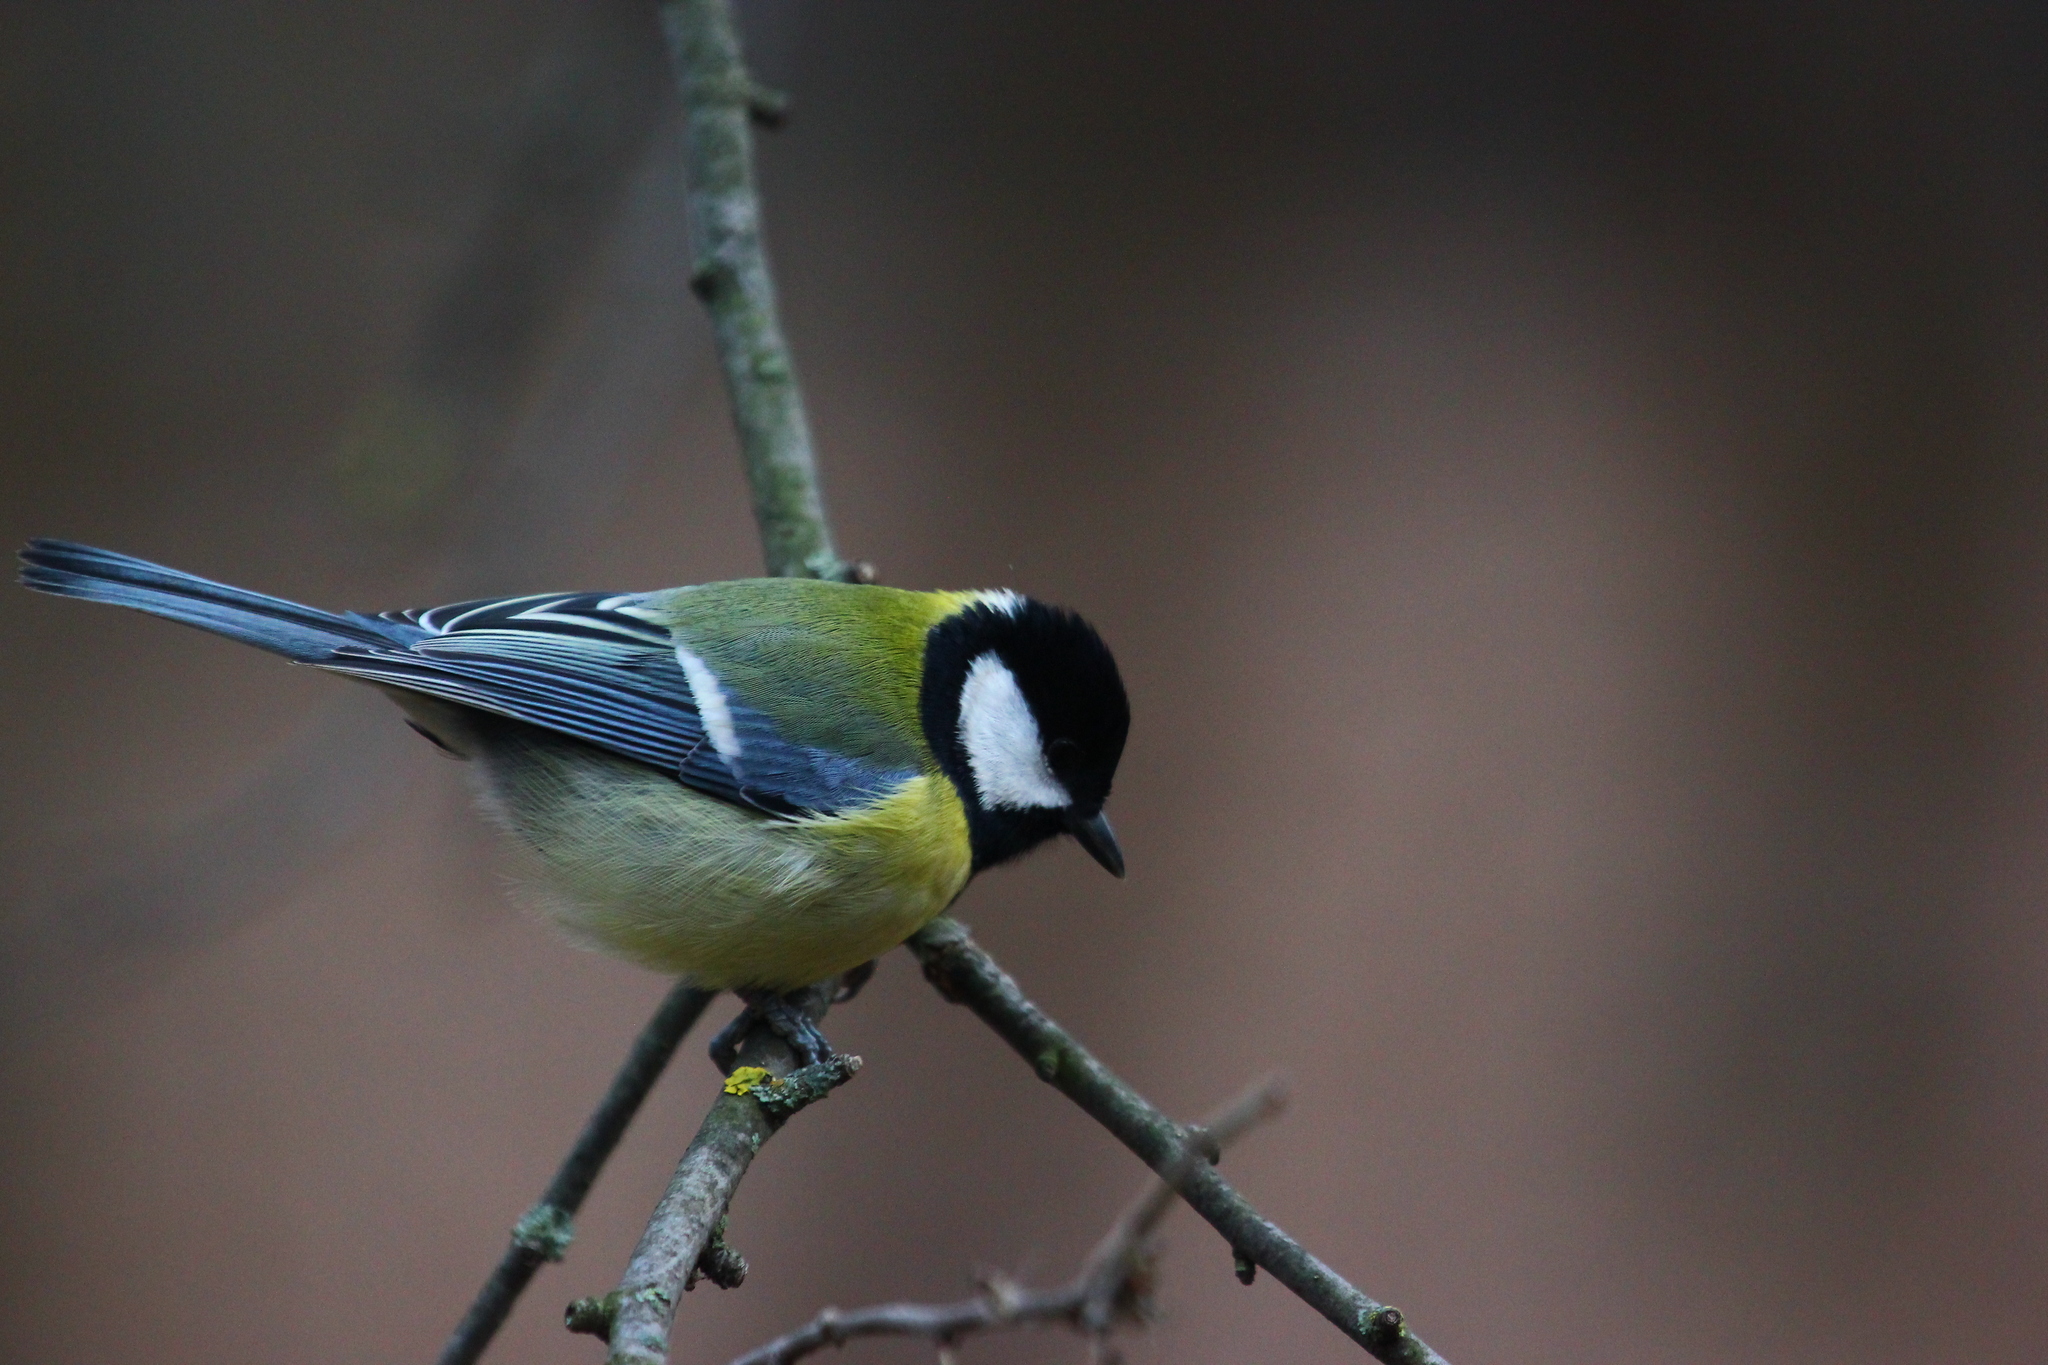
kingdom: Animalia
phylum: Chordata
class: Aves
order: Passeriformes
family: Paridae
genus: Parus
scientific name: Parus major
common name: Great tit
